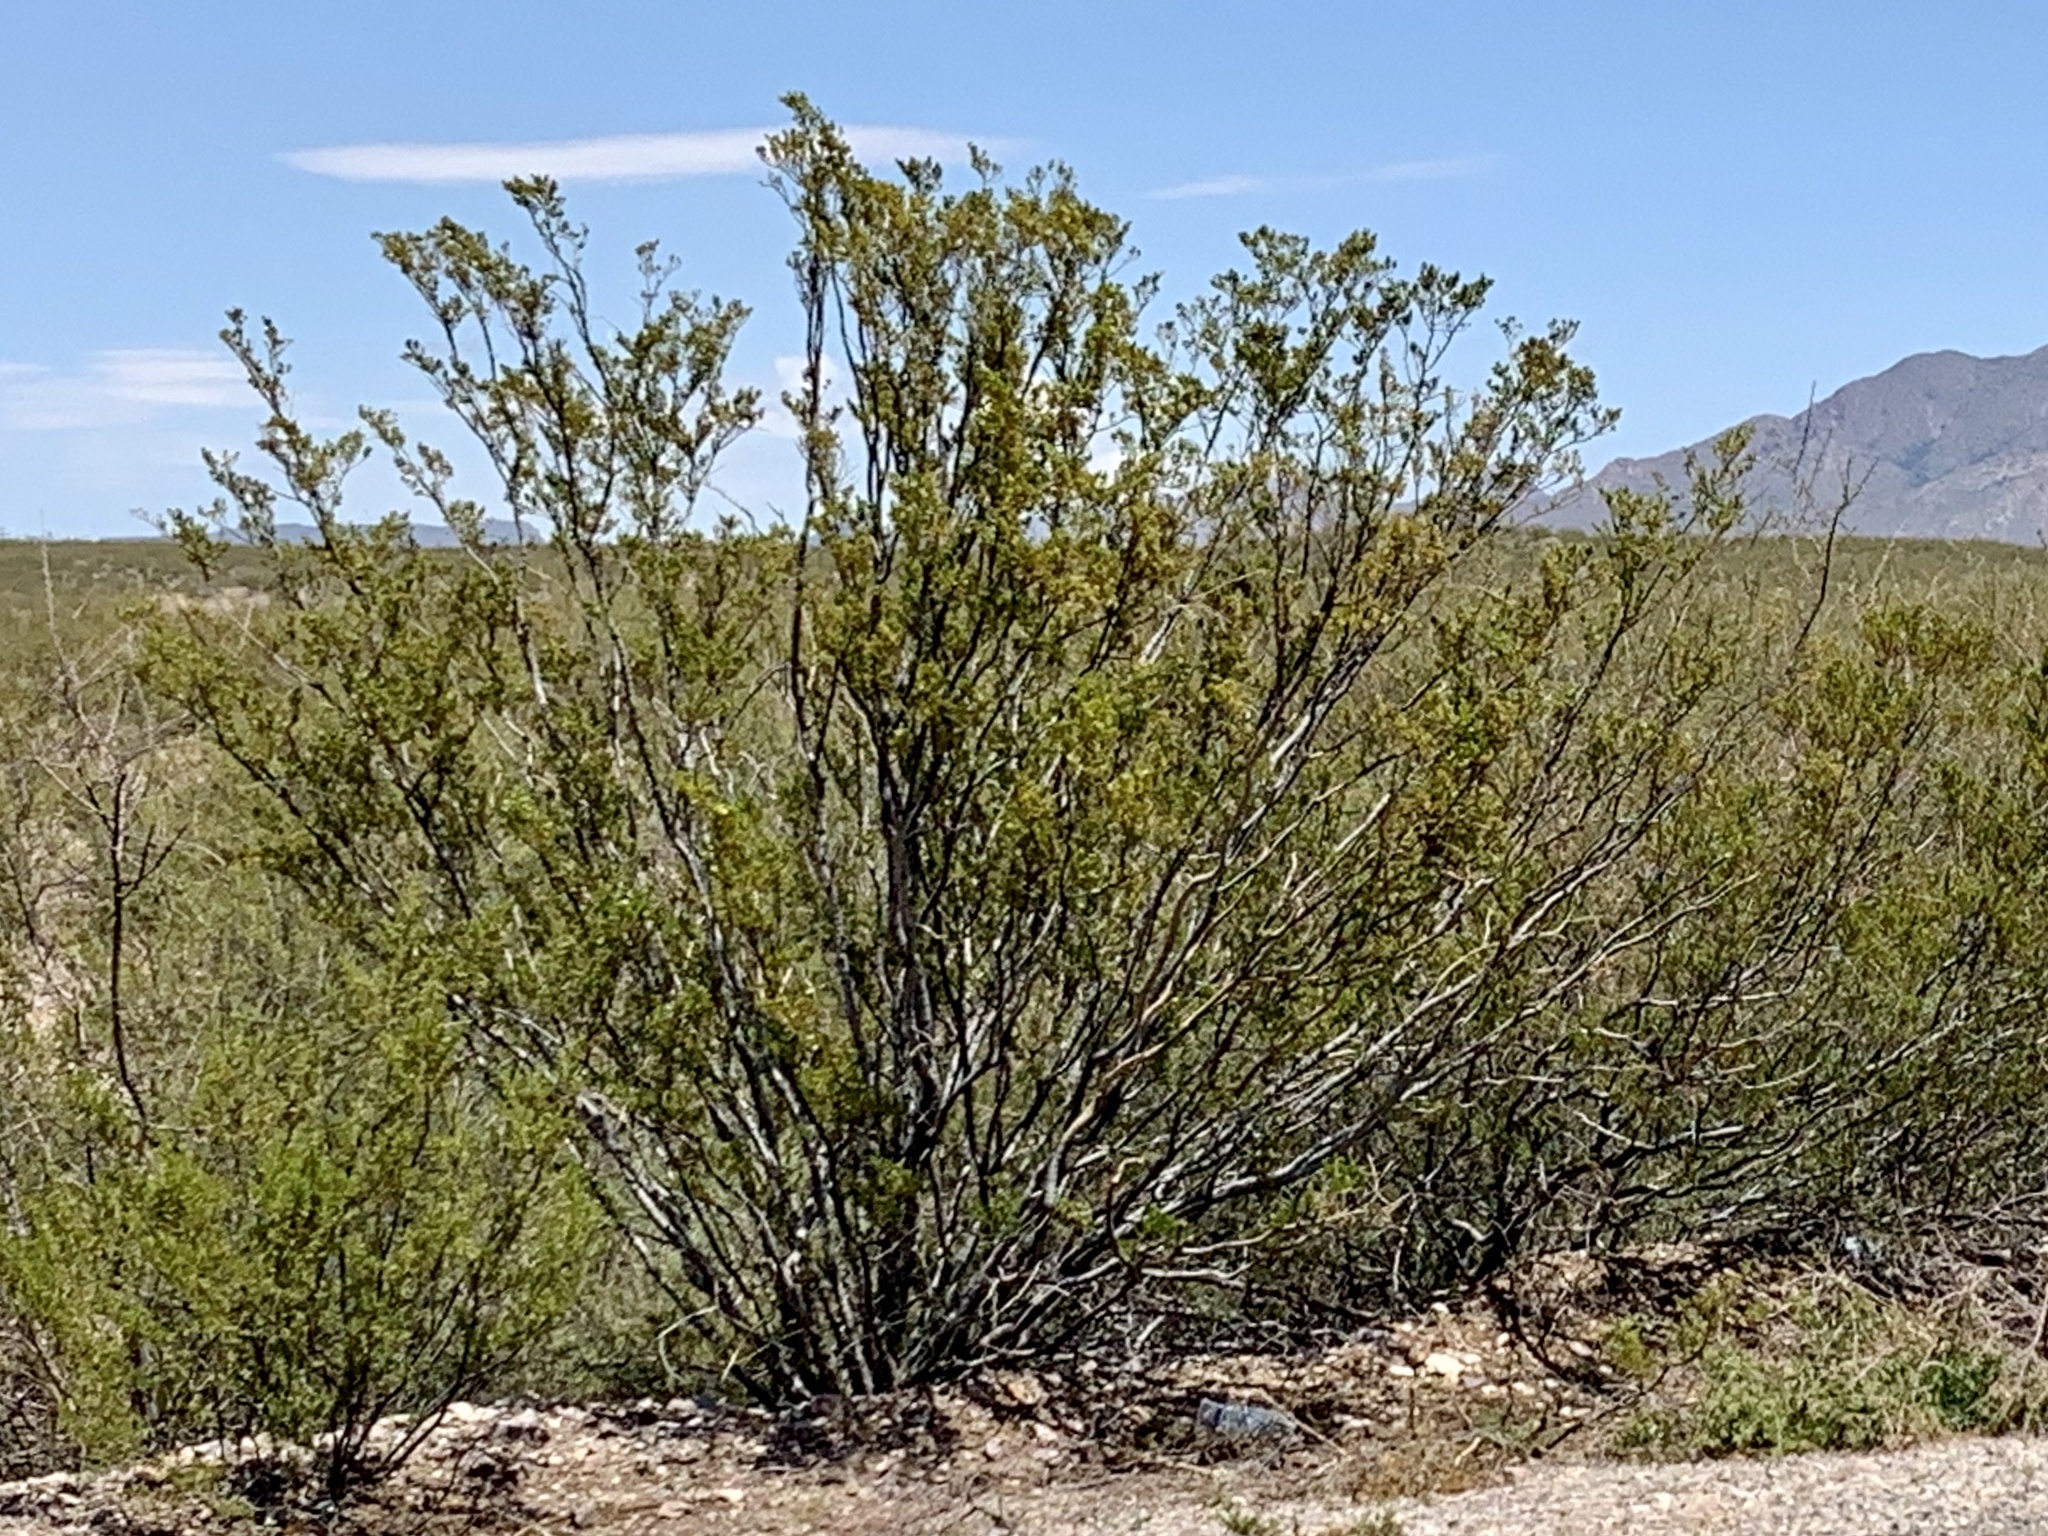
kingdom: Plantae
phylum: Tracheophyta
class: Magnoliopsida
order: Zygophyllales
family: Zygophyllaceae
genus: Larrea
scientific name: Larrea tridentata
